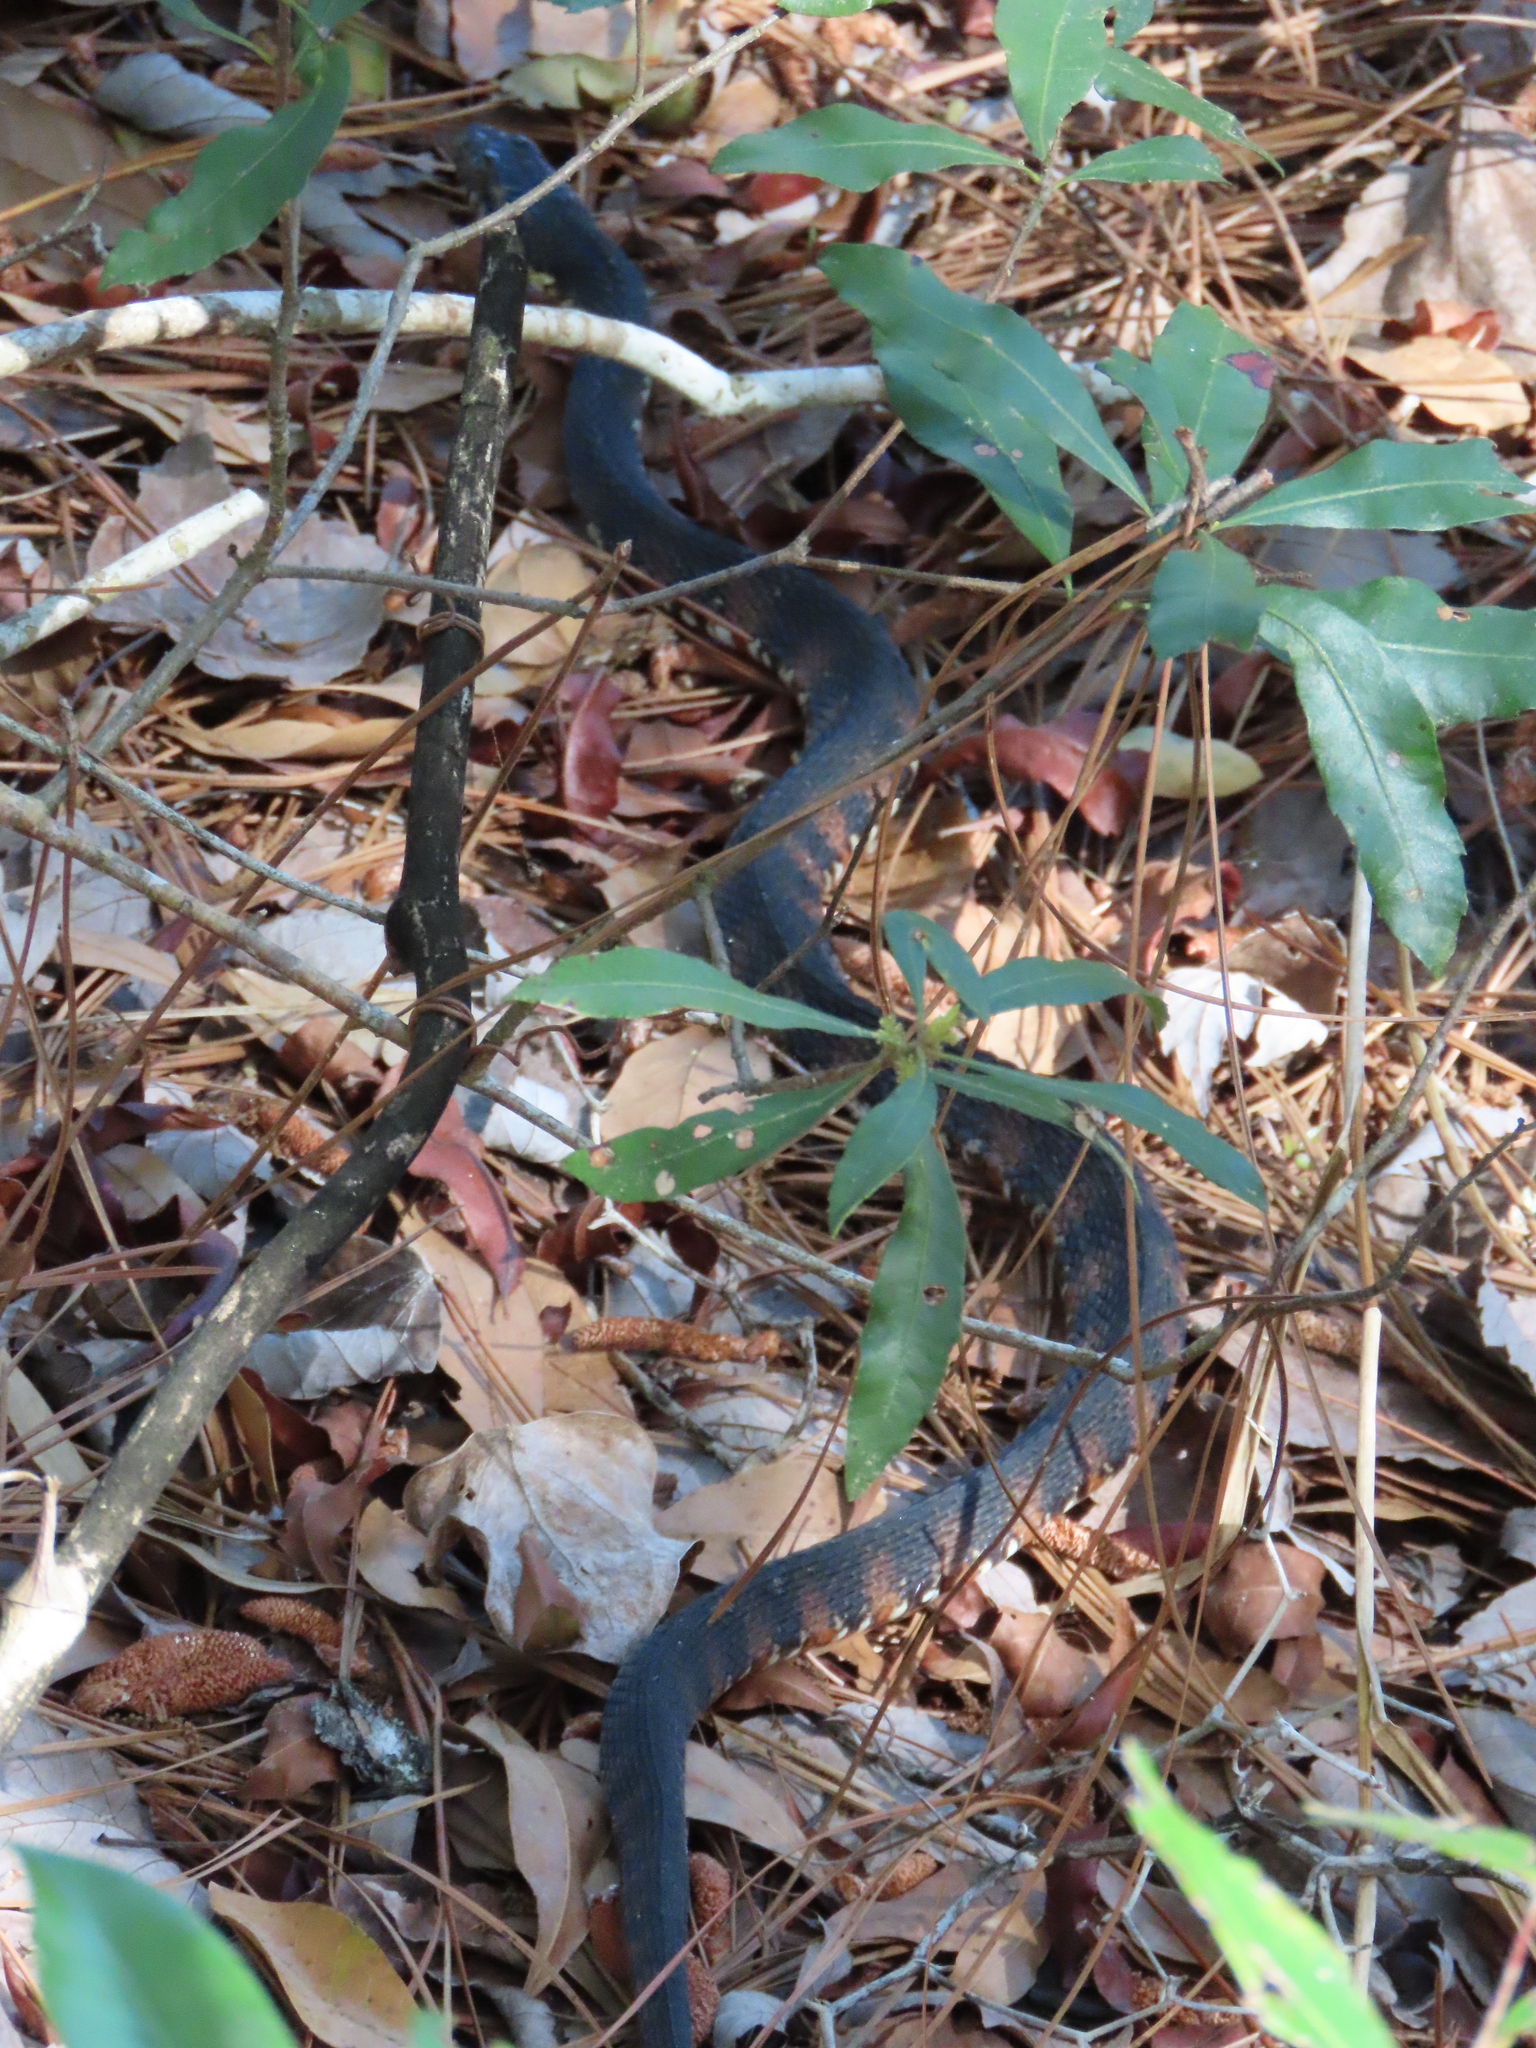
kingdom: Animalia
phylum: Chordata
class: Squamata
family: Colubridae
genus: Nerodia
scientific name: Nerodia fasciata
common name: Southern water snake
